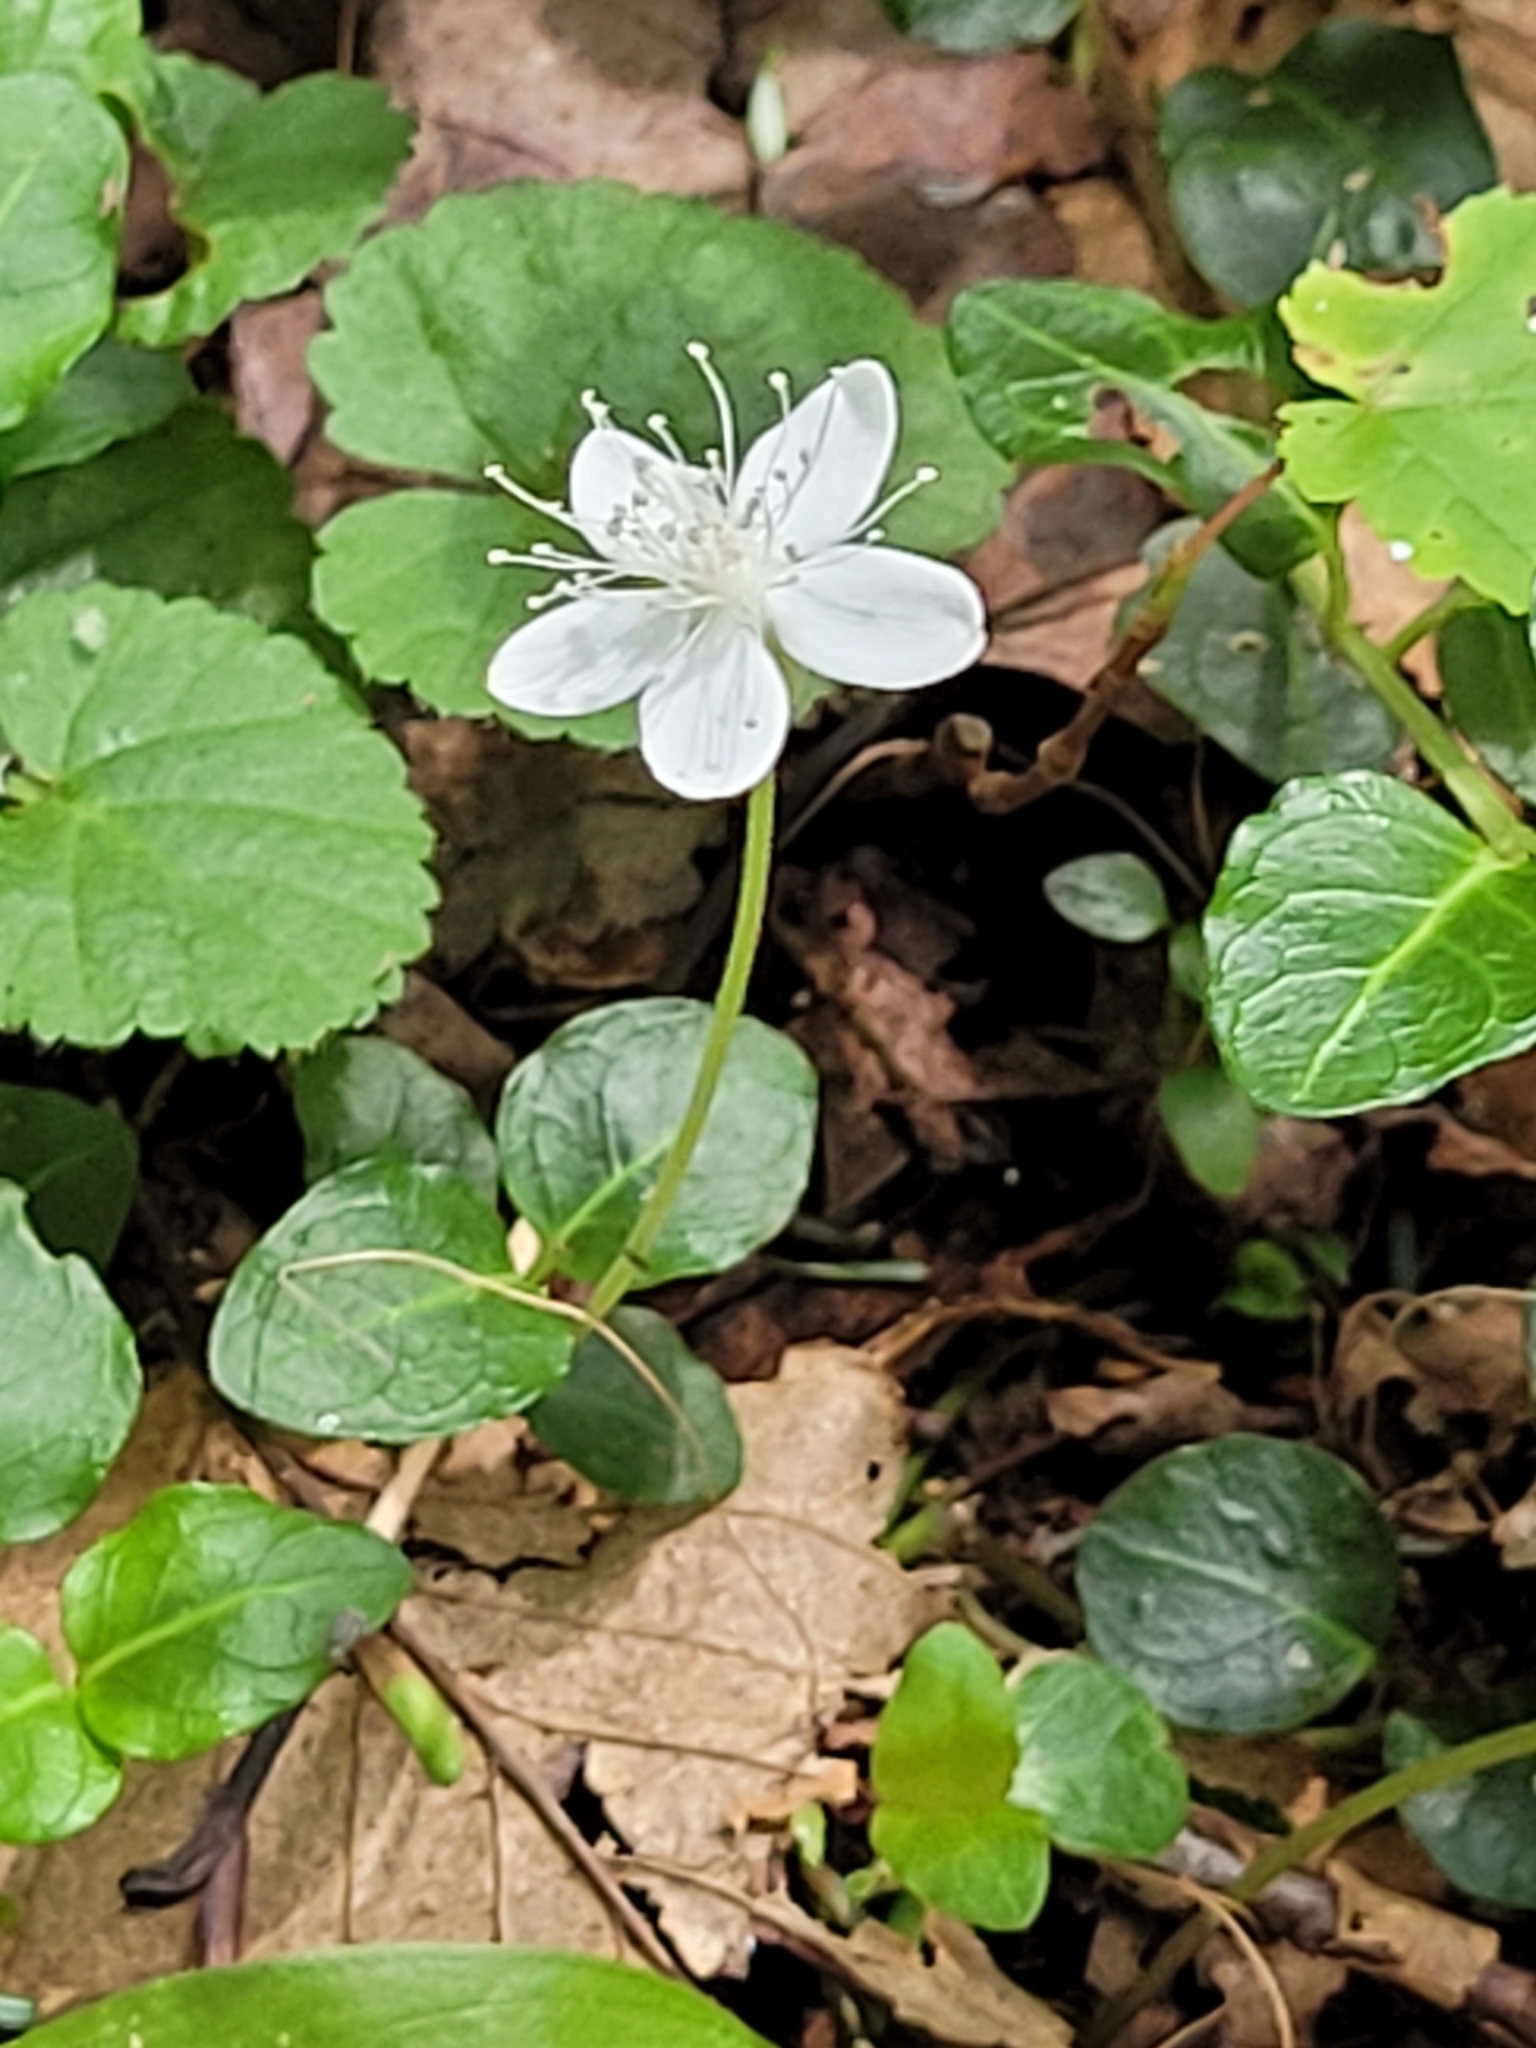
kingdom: Plantae
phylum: Tracheophyta
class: Magnoliopsida
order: Rosales
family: Rosaceae
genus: Dalibarda
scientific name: Dalibarda repens
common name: Dewdrop
